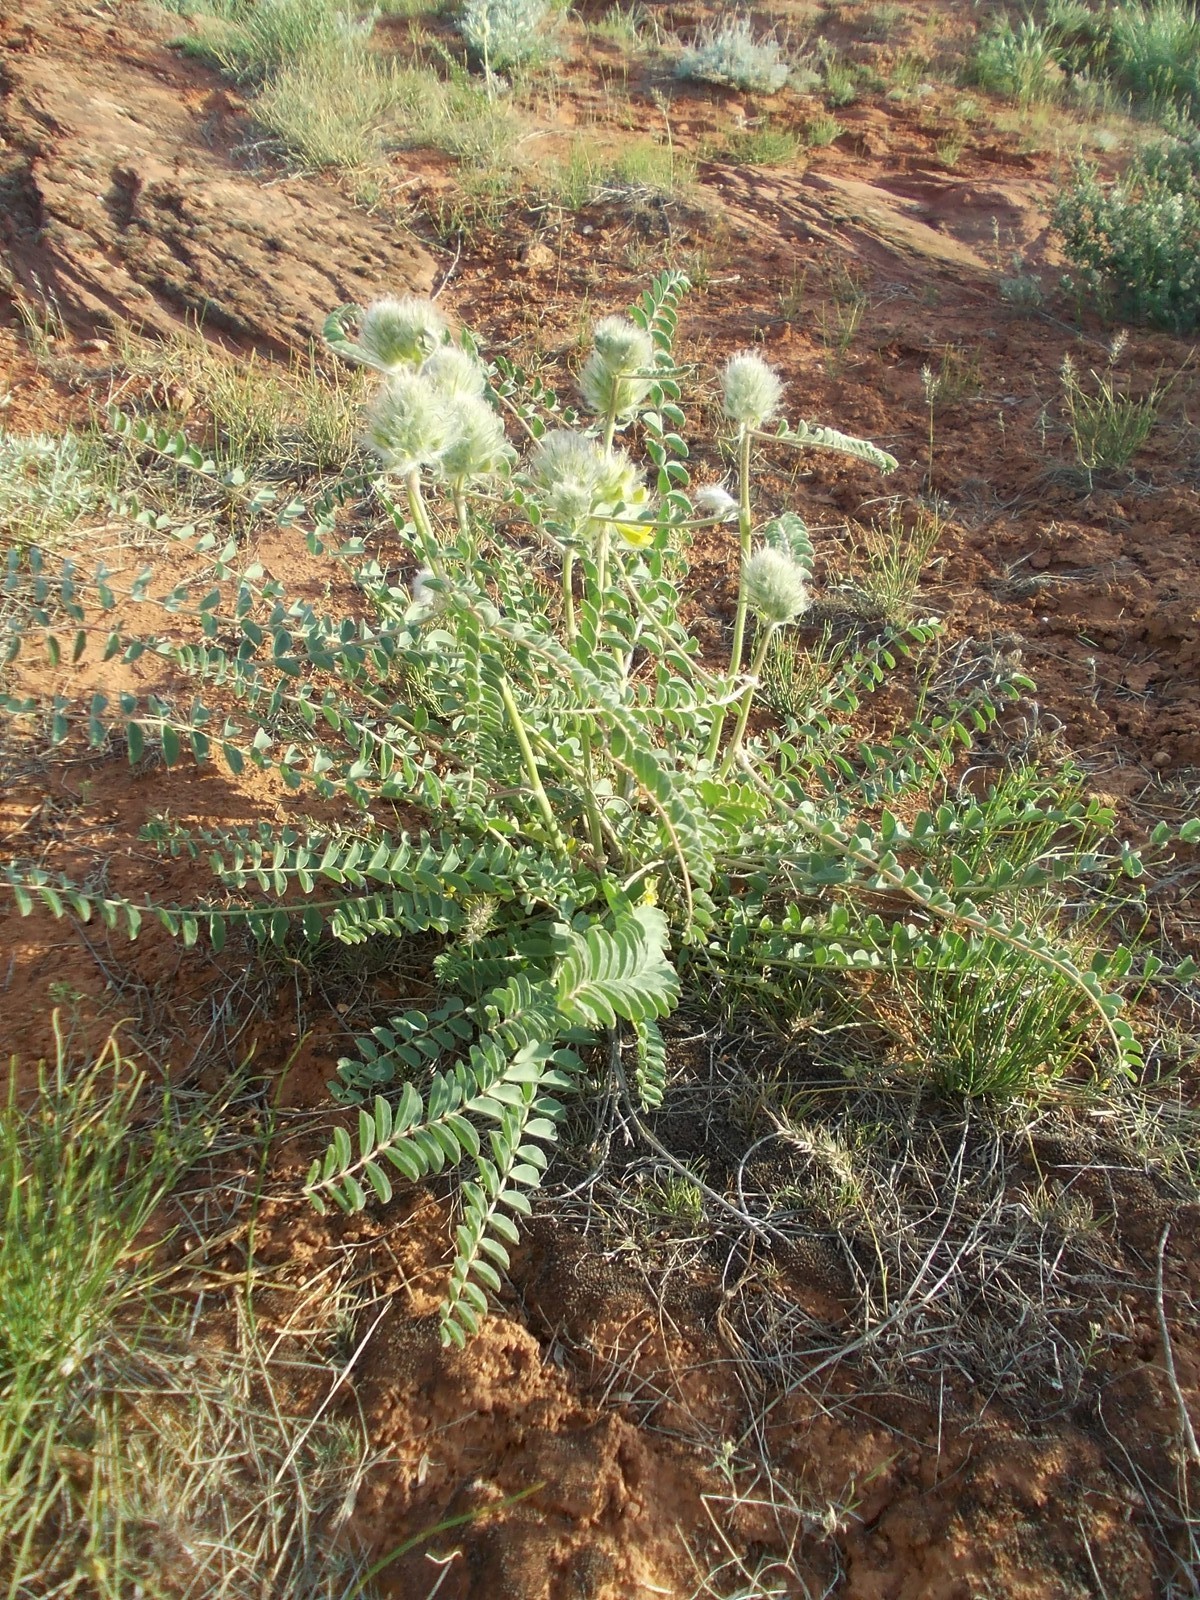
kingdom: Plantae
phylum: Tracheophyta
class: Magnoliopsida
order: Fabales
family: Fabaceae
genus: Astragalus
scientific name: Astragalus vulpinus
